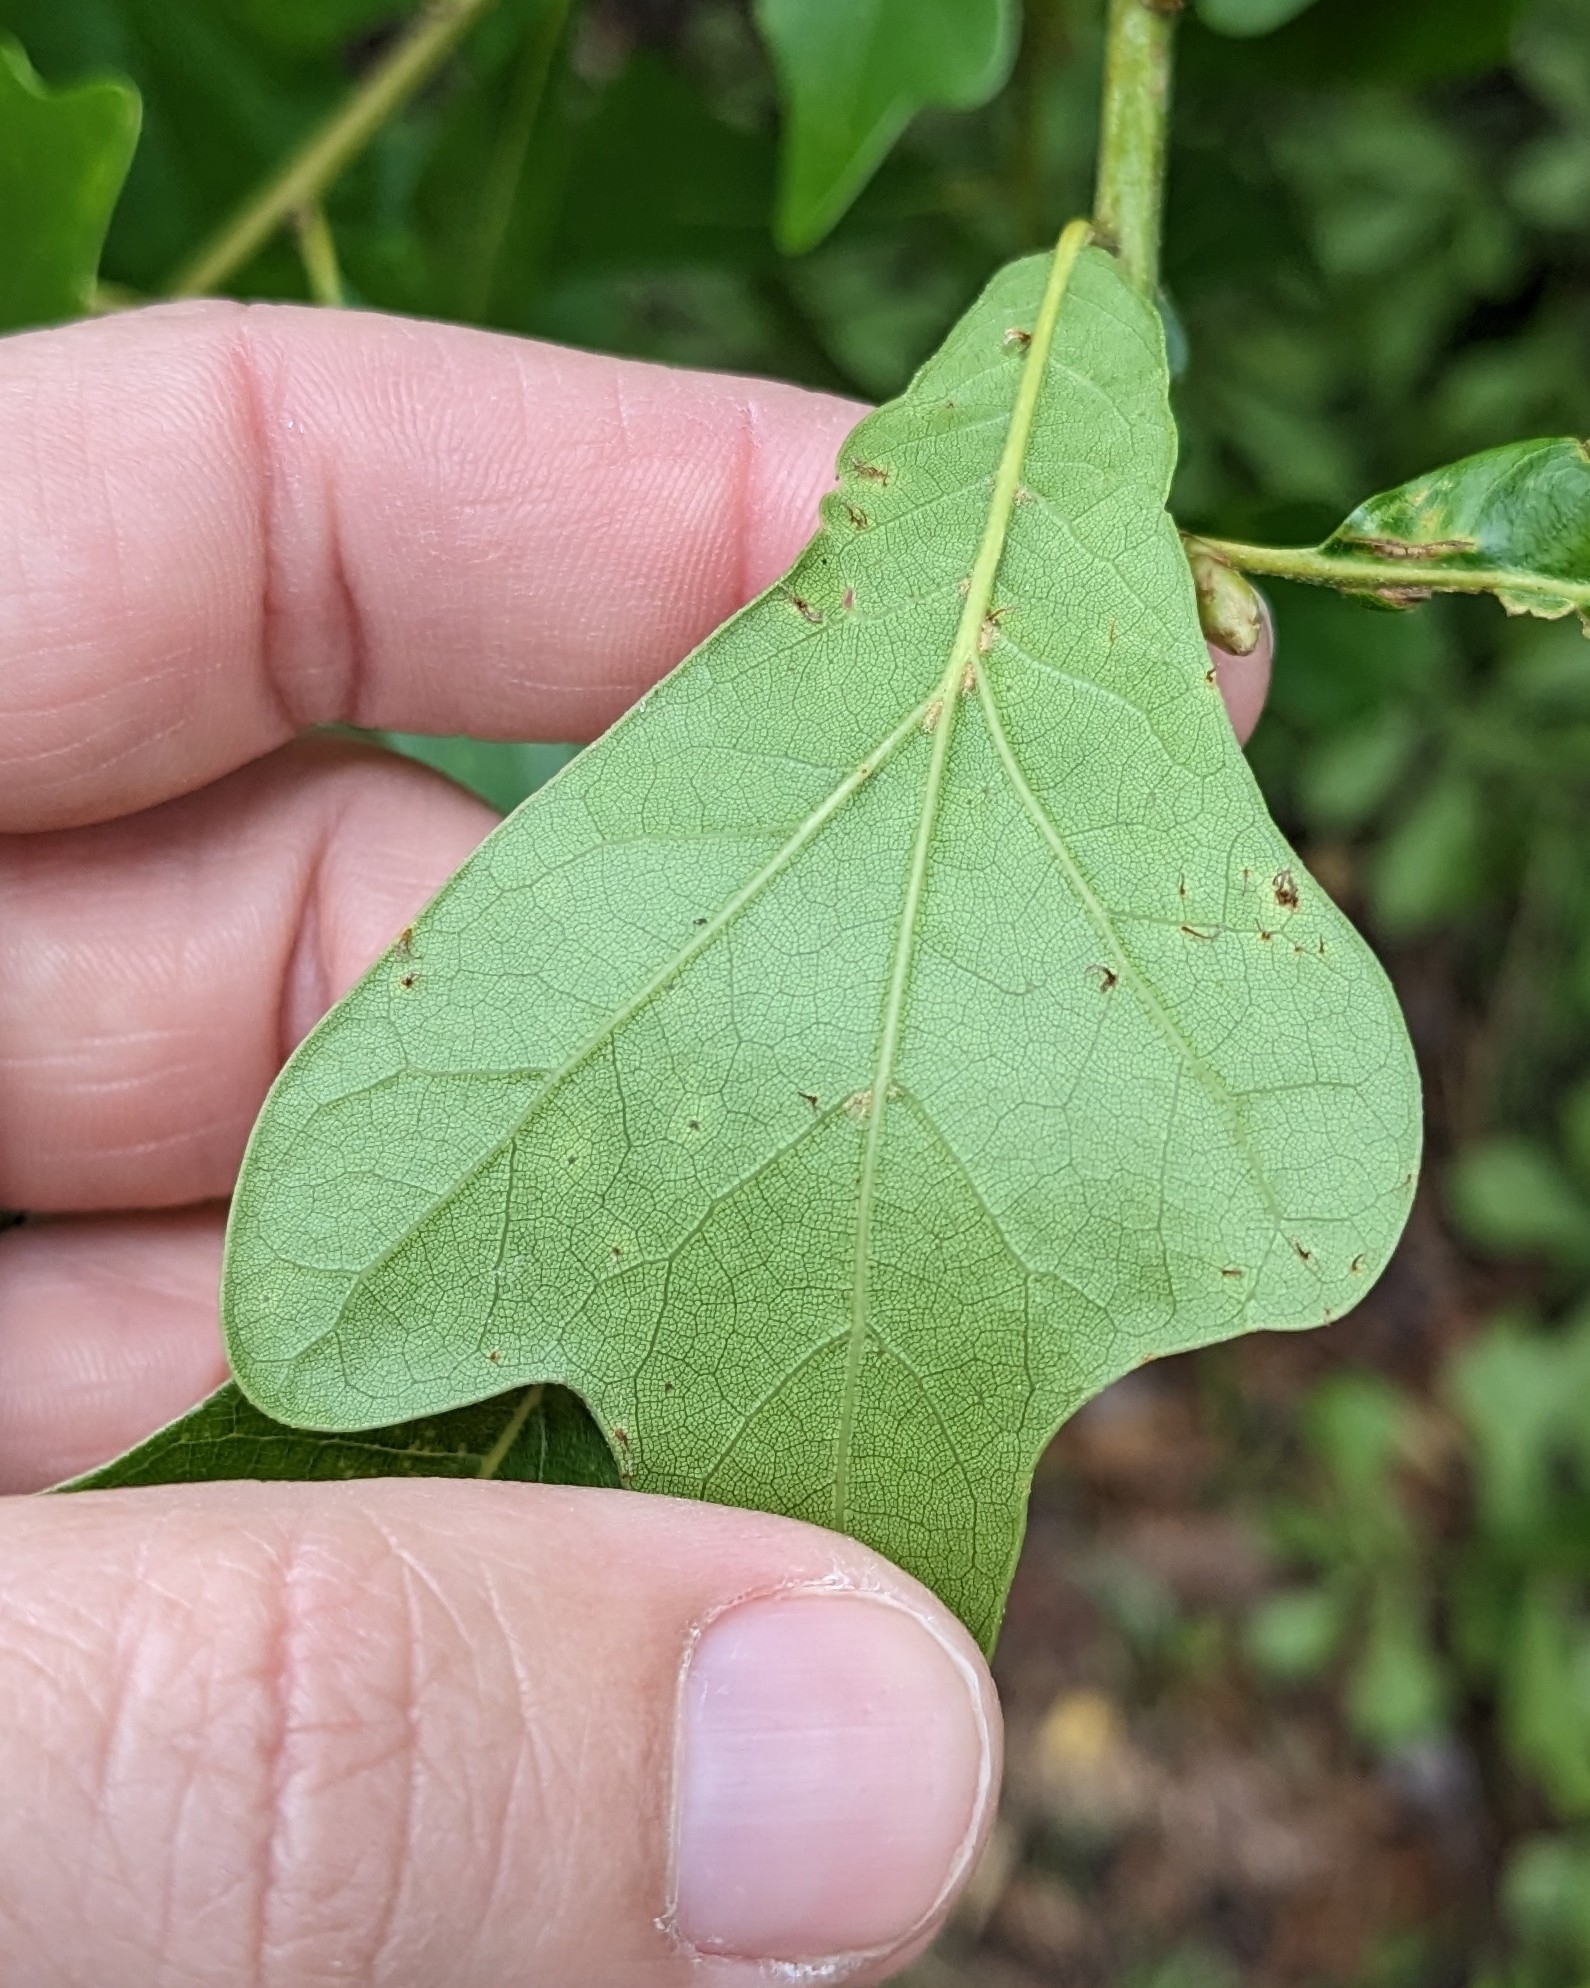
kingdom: Plantae
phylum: Tracheophyta
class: Magnoliopsida
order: Fagales
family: Fagaceae
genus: Quercus
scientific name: Quercus nigra
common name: Water oak
